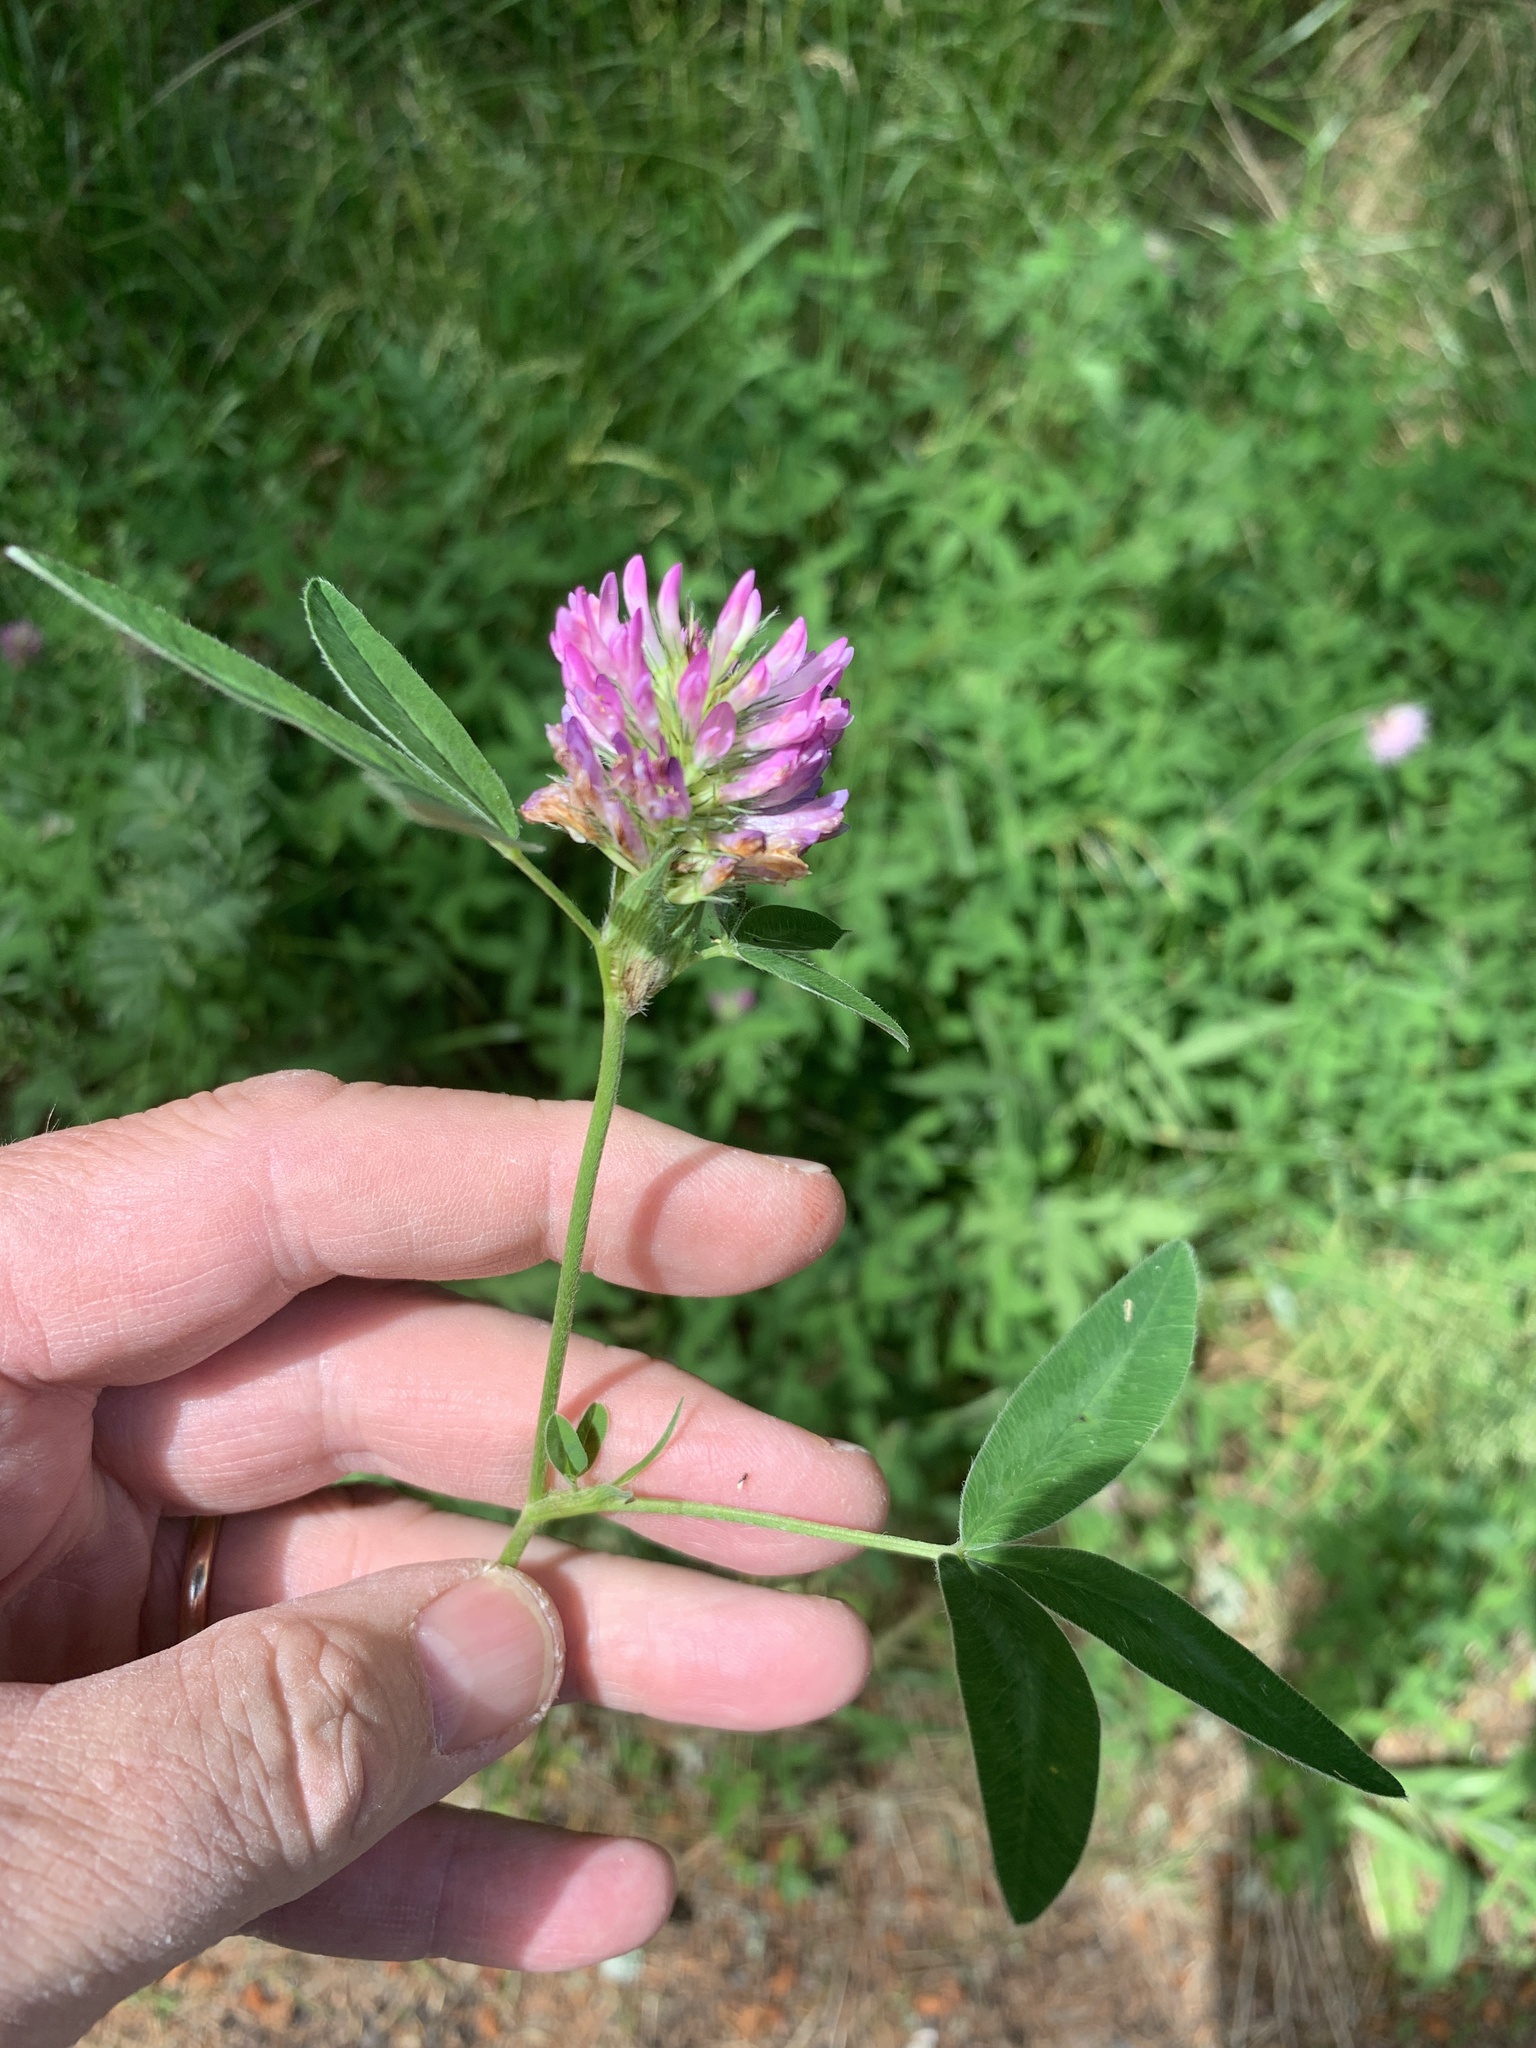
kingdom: Plantae
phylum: Tracheophyta
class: Magnoliopsida
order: Fabales
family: Fabaceae
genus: Trifolium
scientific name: Trifolium medium
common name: Zigzag clover
